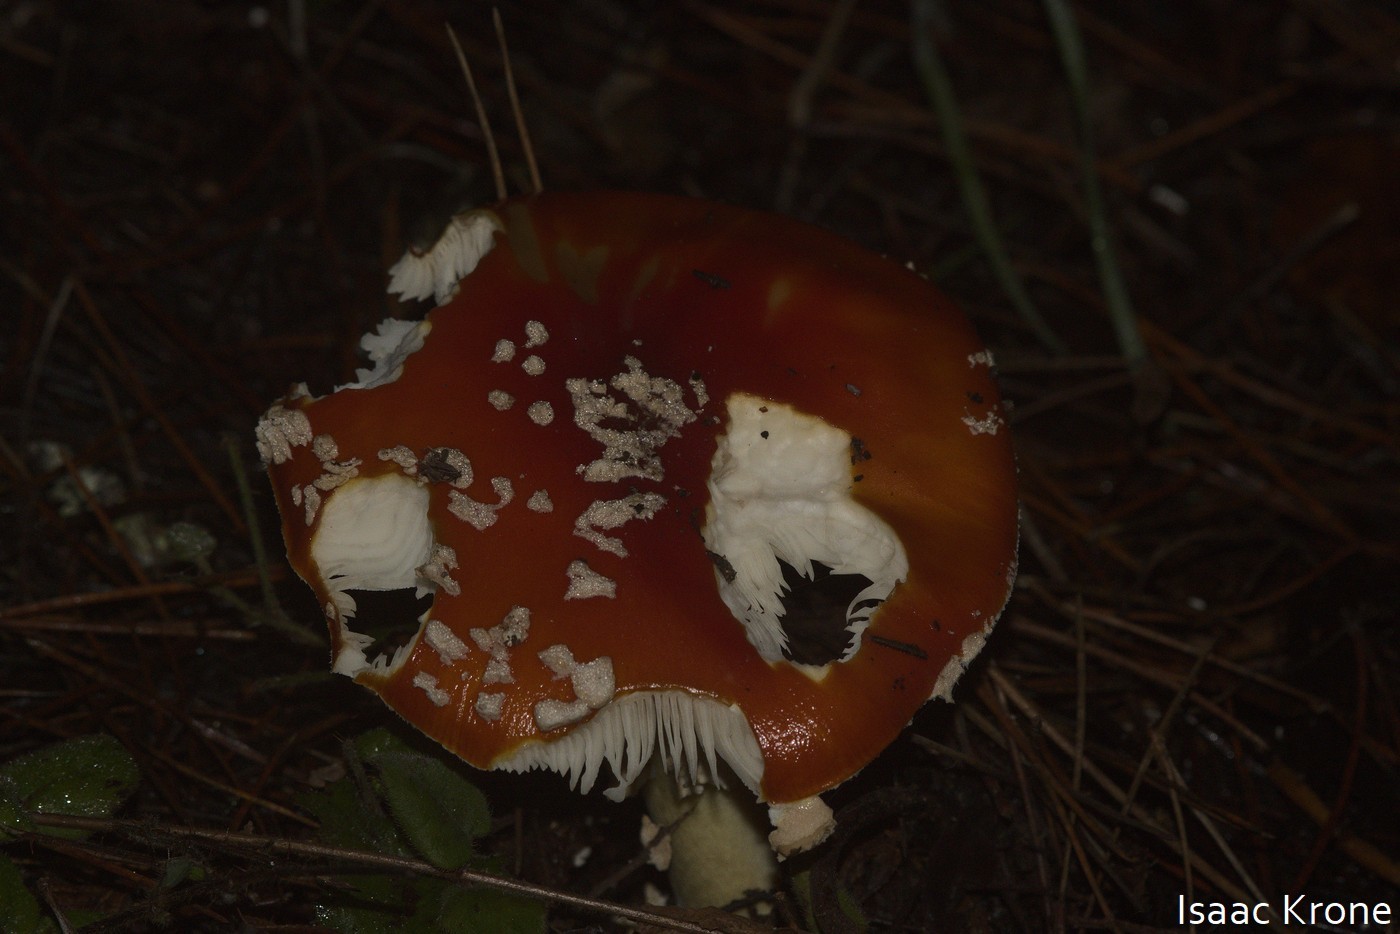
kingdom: Fungi
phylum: Basidiomycota
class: Agaricomycetes
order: Agaricales
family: Amanitaceae
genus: Amanita
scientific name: Amanita muscaria
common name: Fly agaric
